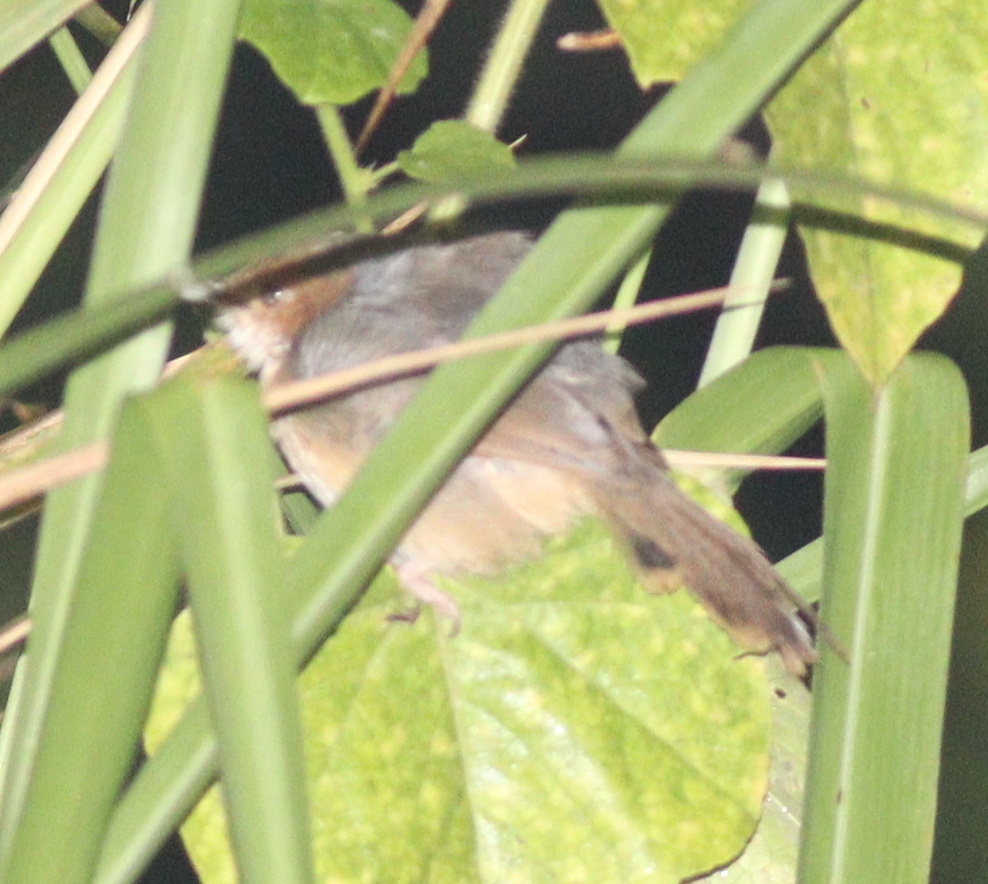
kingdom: Animalia
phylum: Chordata
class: Aves
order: Passeriformes
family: Cisticolidae
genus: Cisticola
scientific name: Cisticola erythrops
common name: Red-faced cisticola
